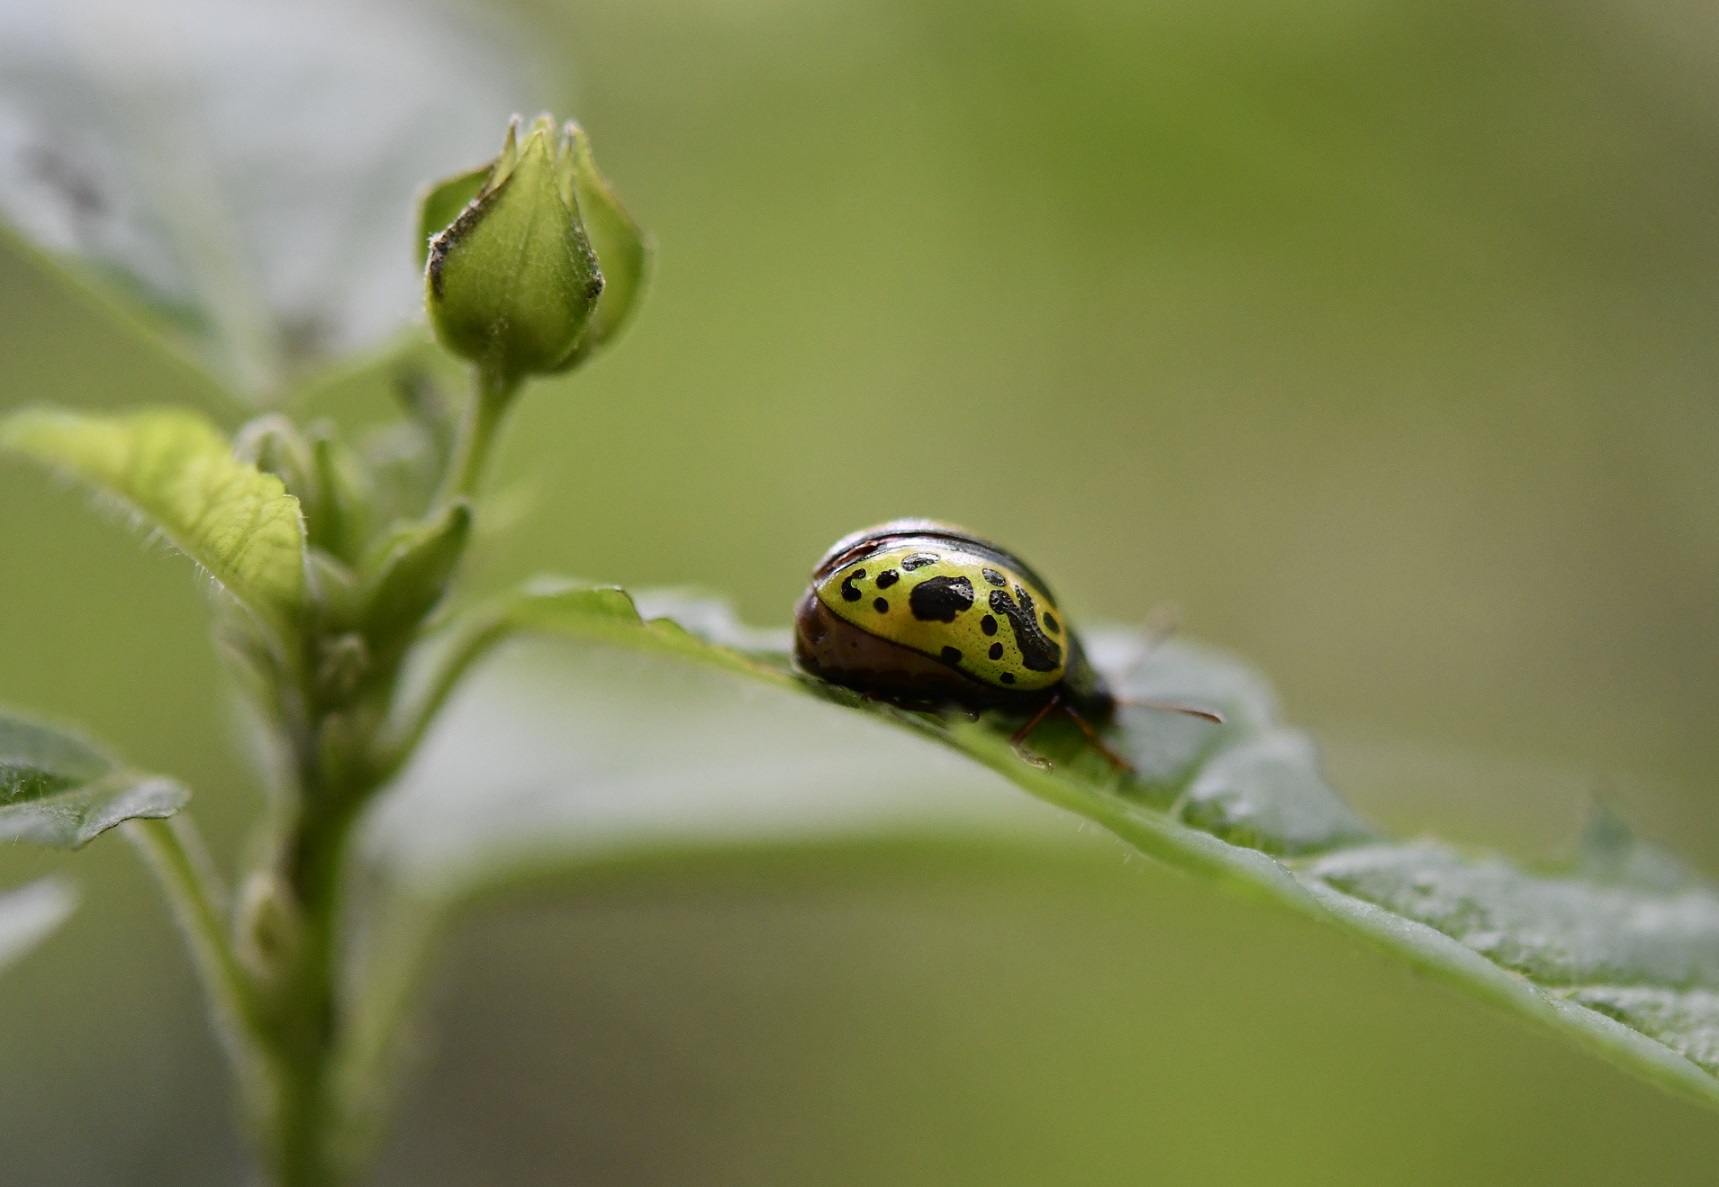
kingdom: Animalia
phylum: Arthropoda
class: Insecta
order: Coleoptera
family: Chrysomelidae
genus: Calligrapha
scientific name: Calligrapha fulvipes
